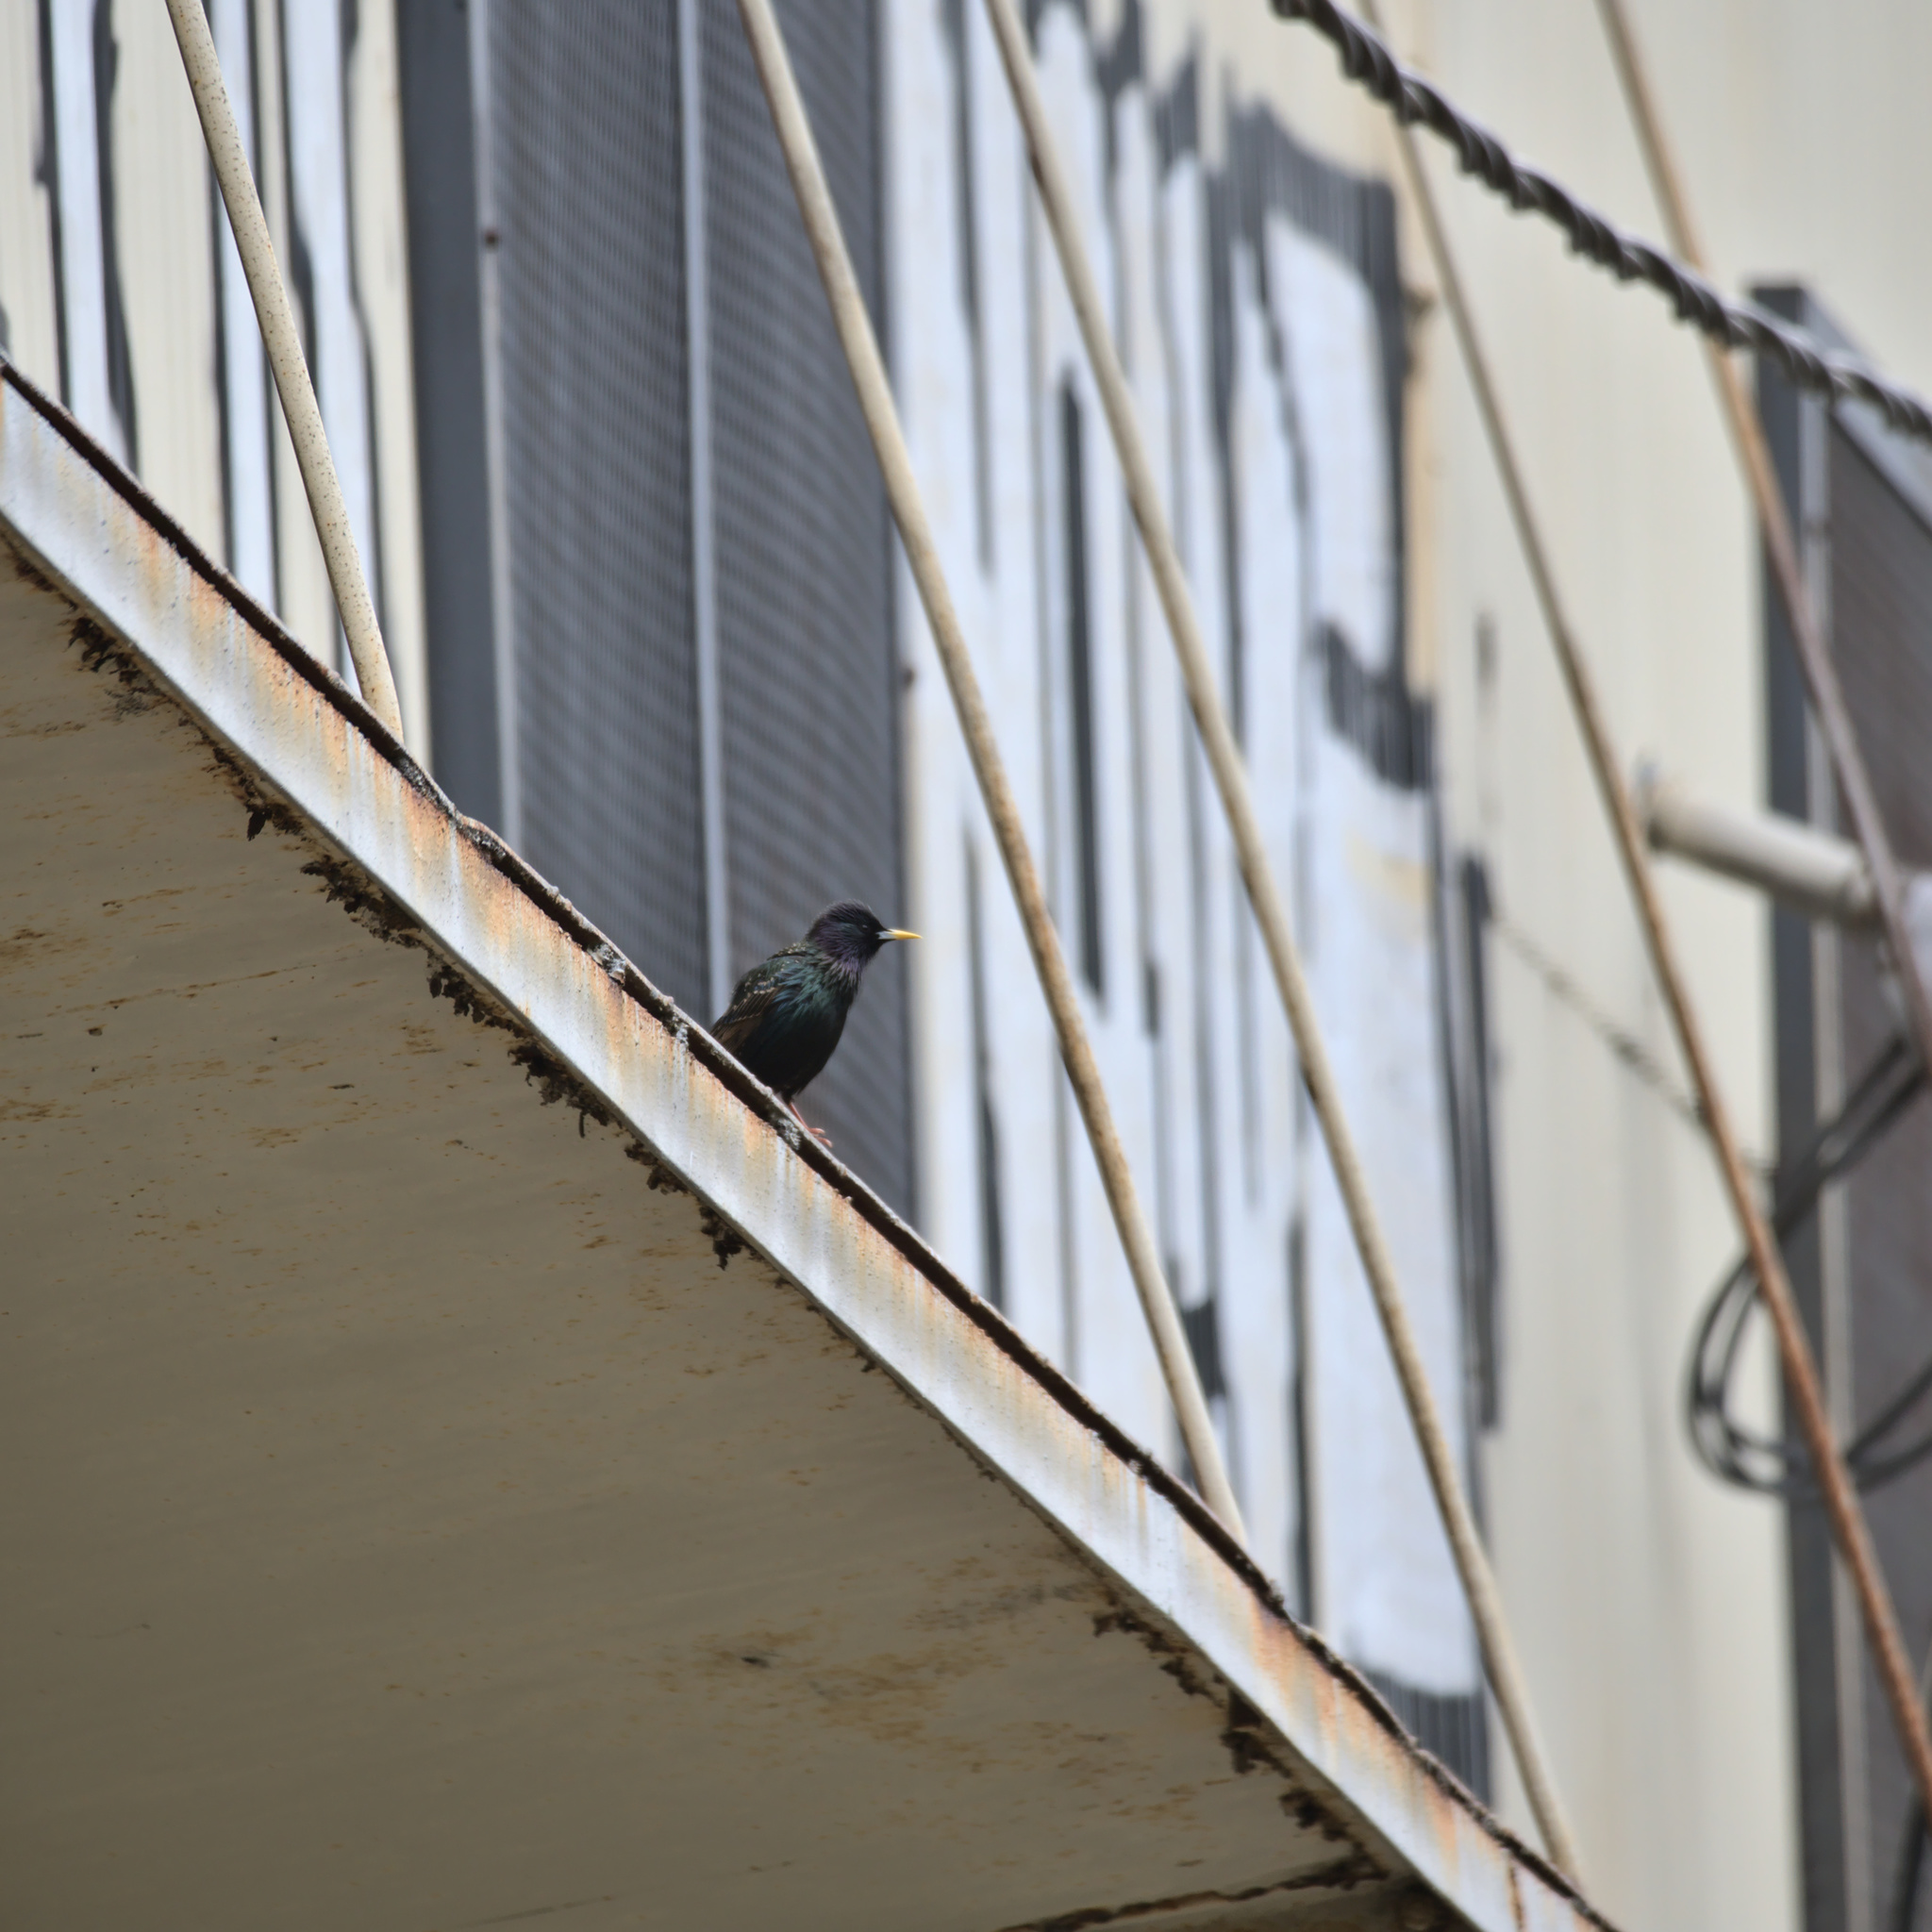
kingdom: Animalia
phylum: Chordata
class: Aves
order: Passeriformes
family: Sturnidae
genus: Sturnus
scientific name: Sturnus vulgaris
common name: Common starling
